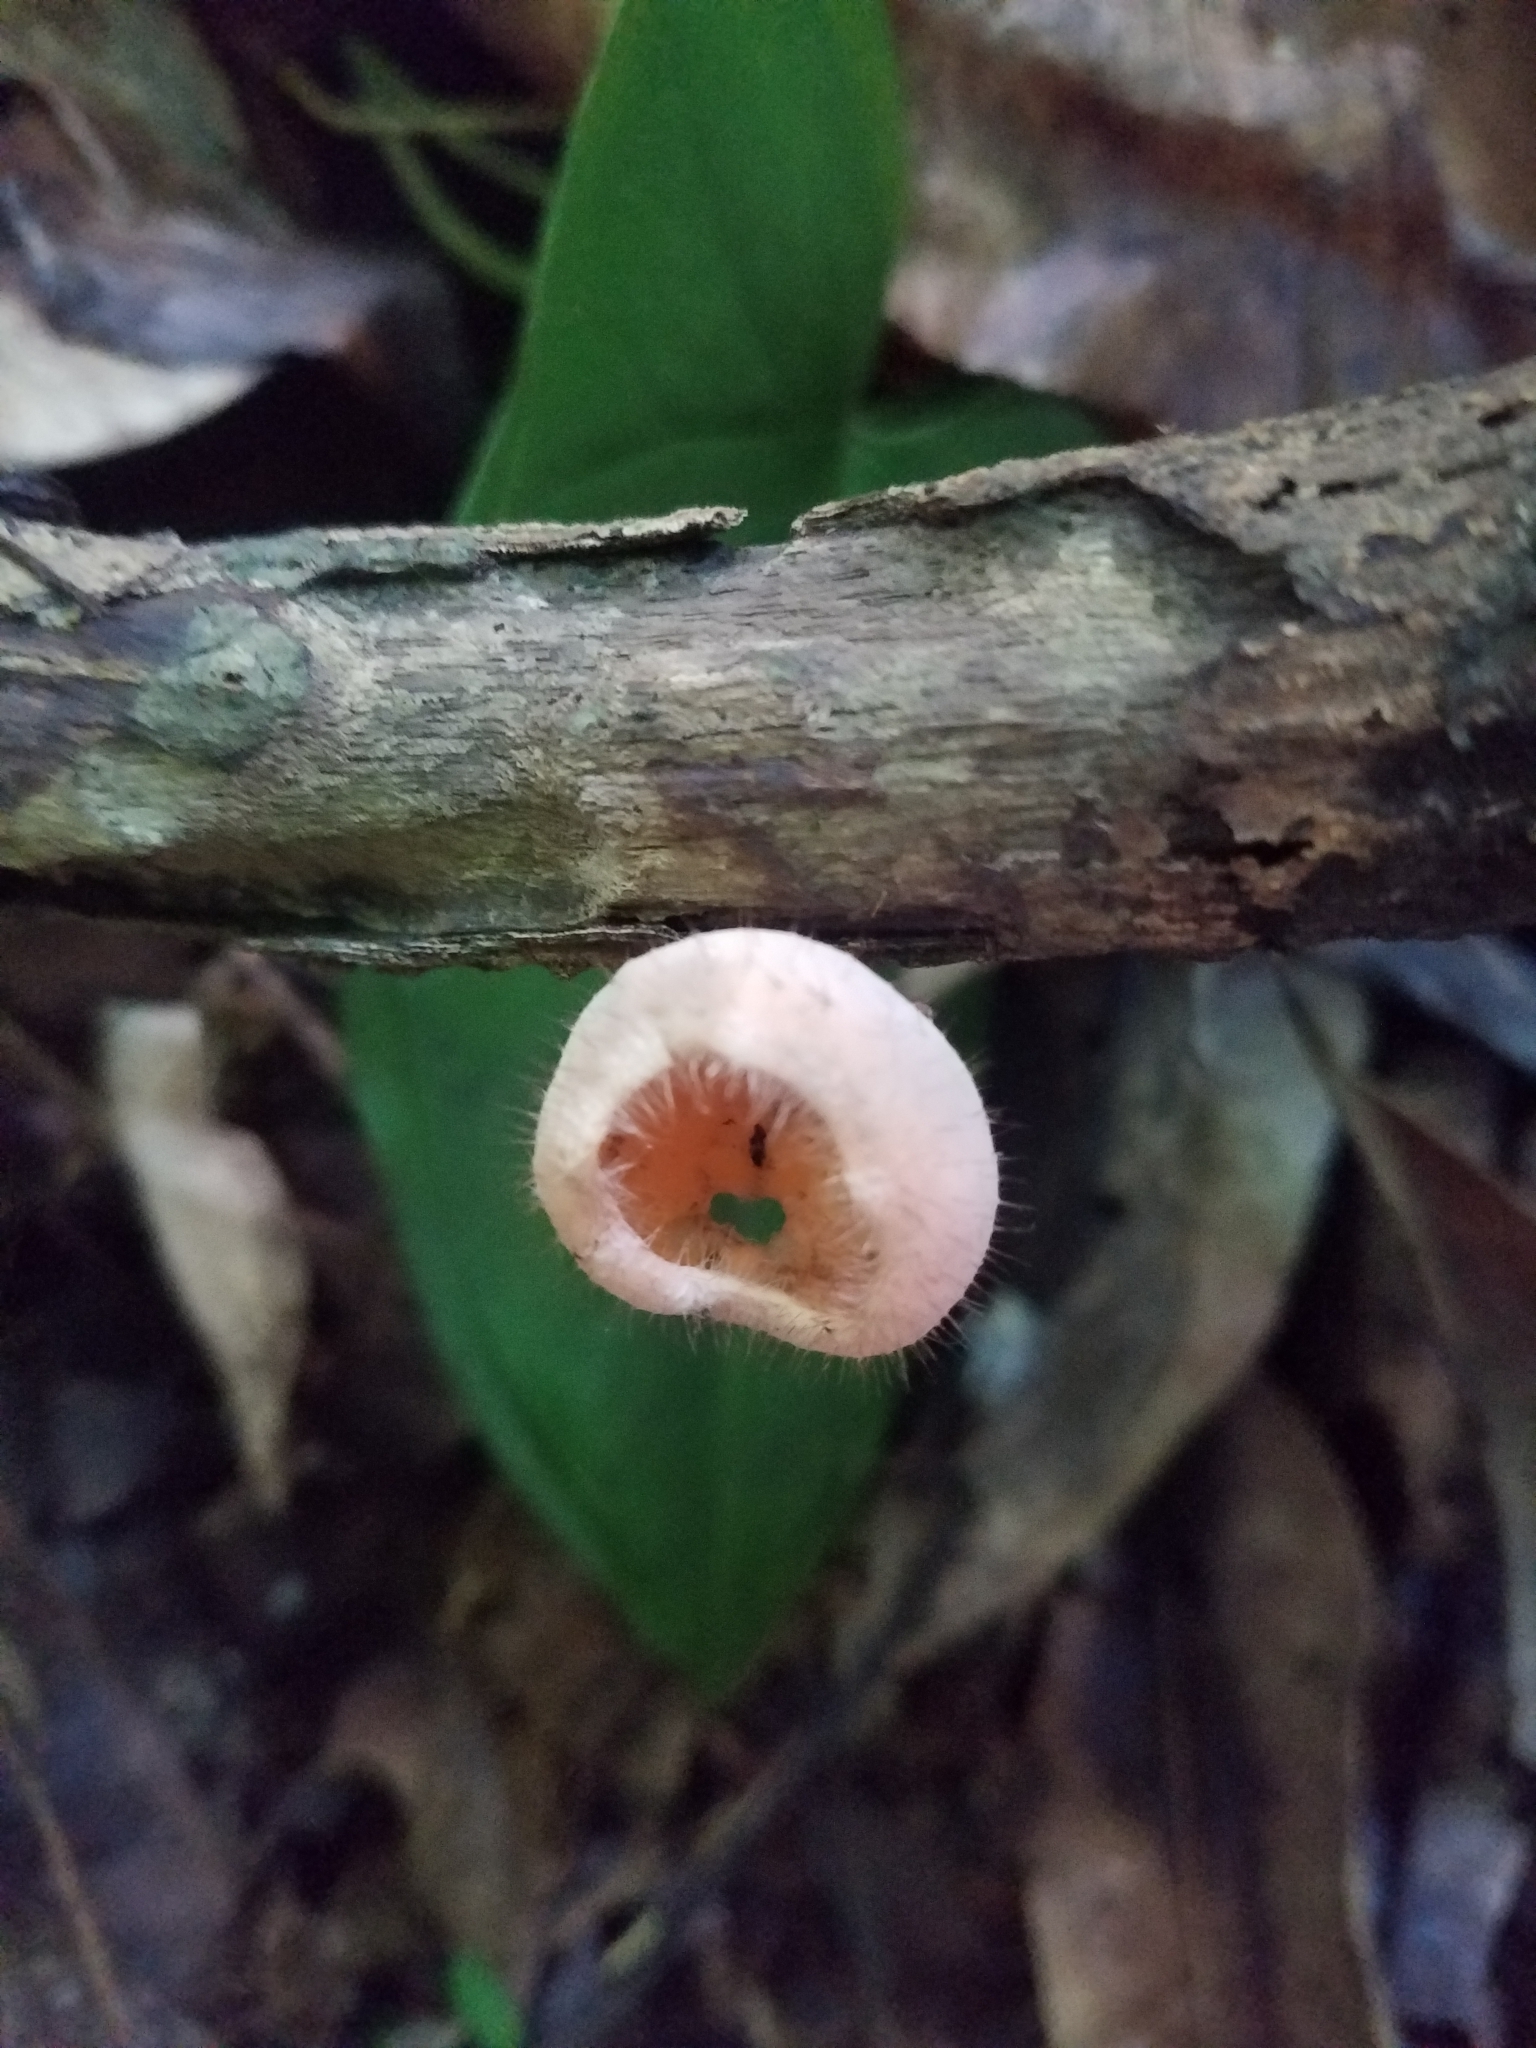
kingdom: Fungi
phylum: Ascomycota
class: Pezizomycetes
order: Pezizales
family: Sarcoscyphaceae
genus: Cookeina
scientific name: Cookeina tricholoma
